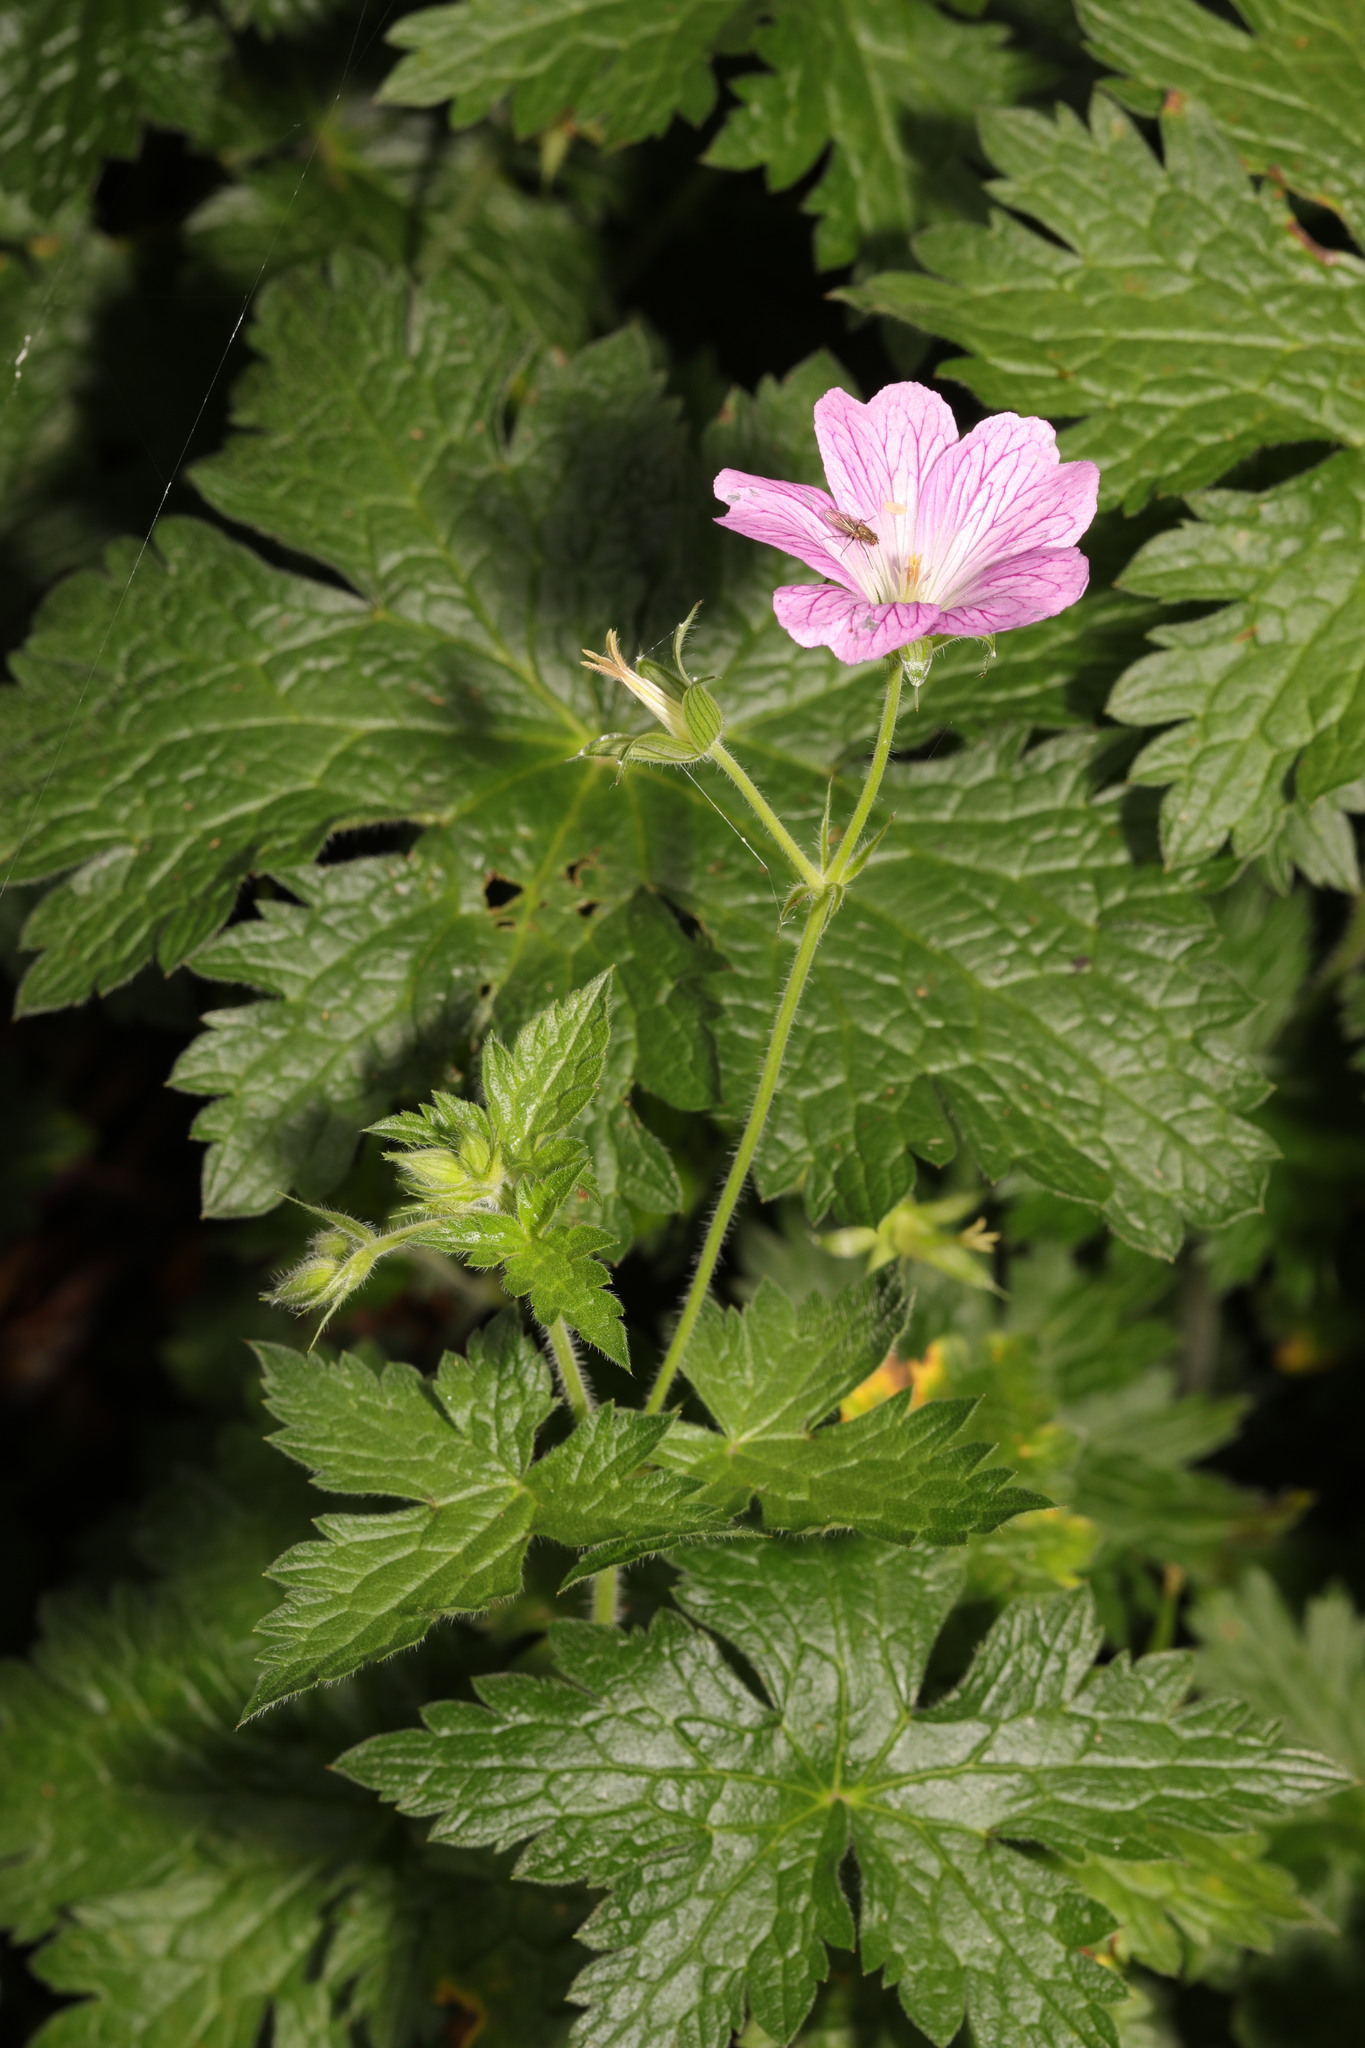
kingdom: Plantae
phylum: Tracheophyta
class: Magnoliopsida
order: Geraniales
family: Geraniaceae
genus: Geranium
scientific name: Geranium oxonianum
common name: Druce's crane's-bill
